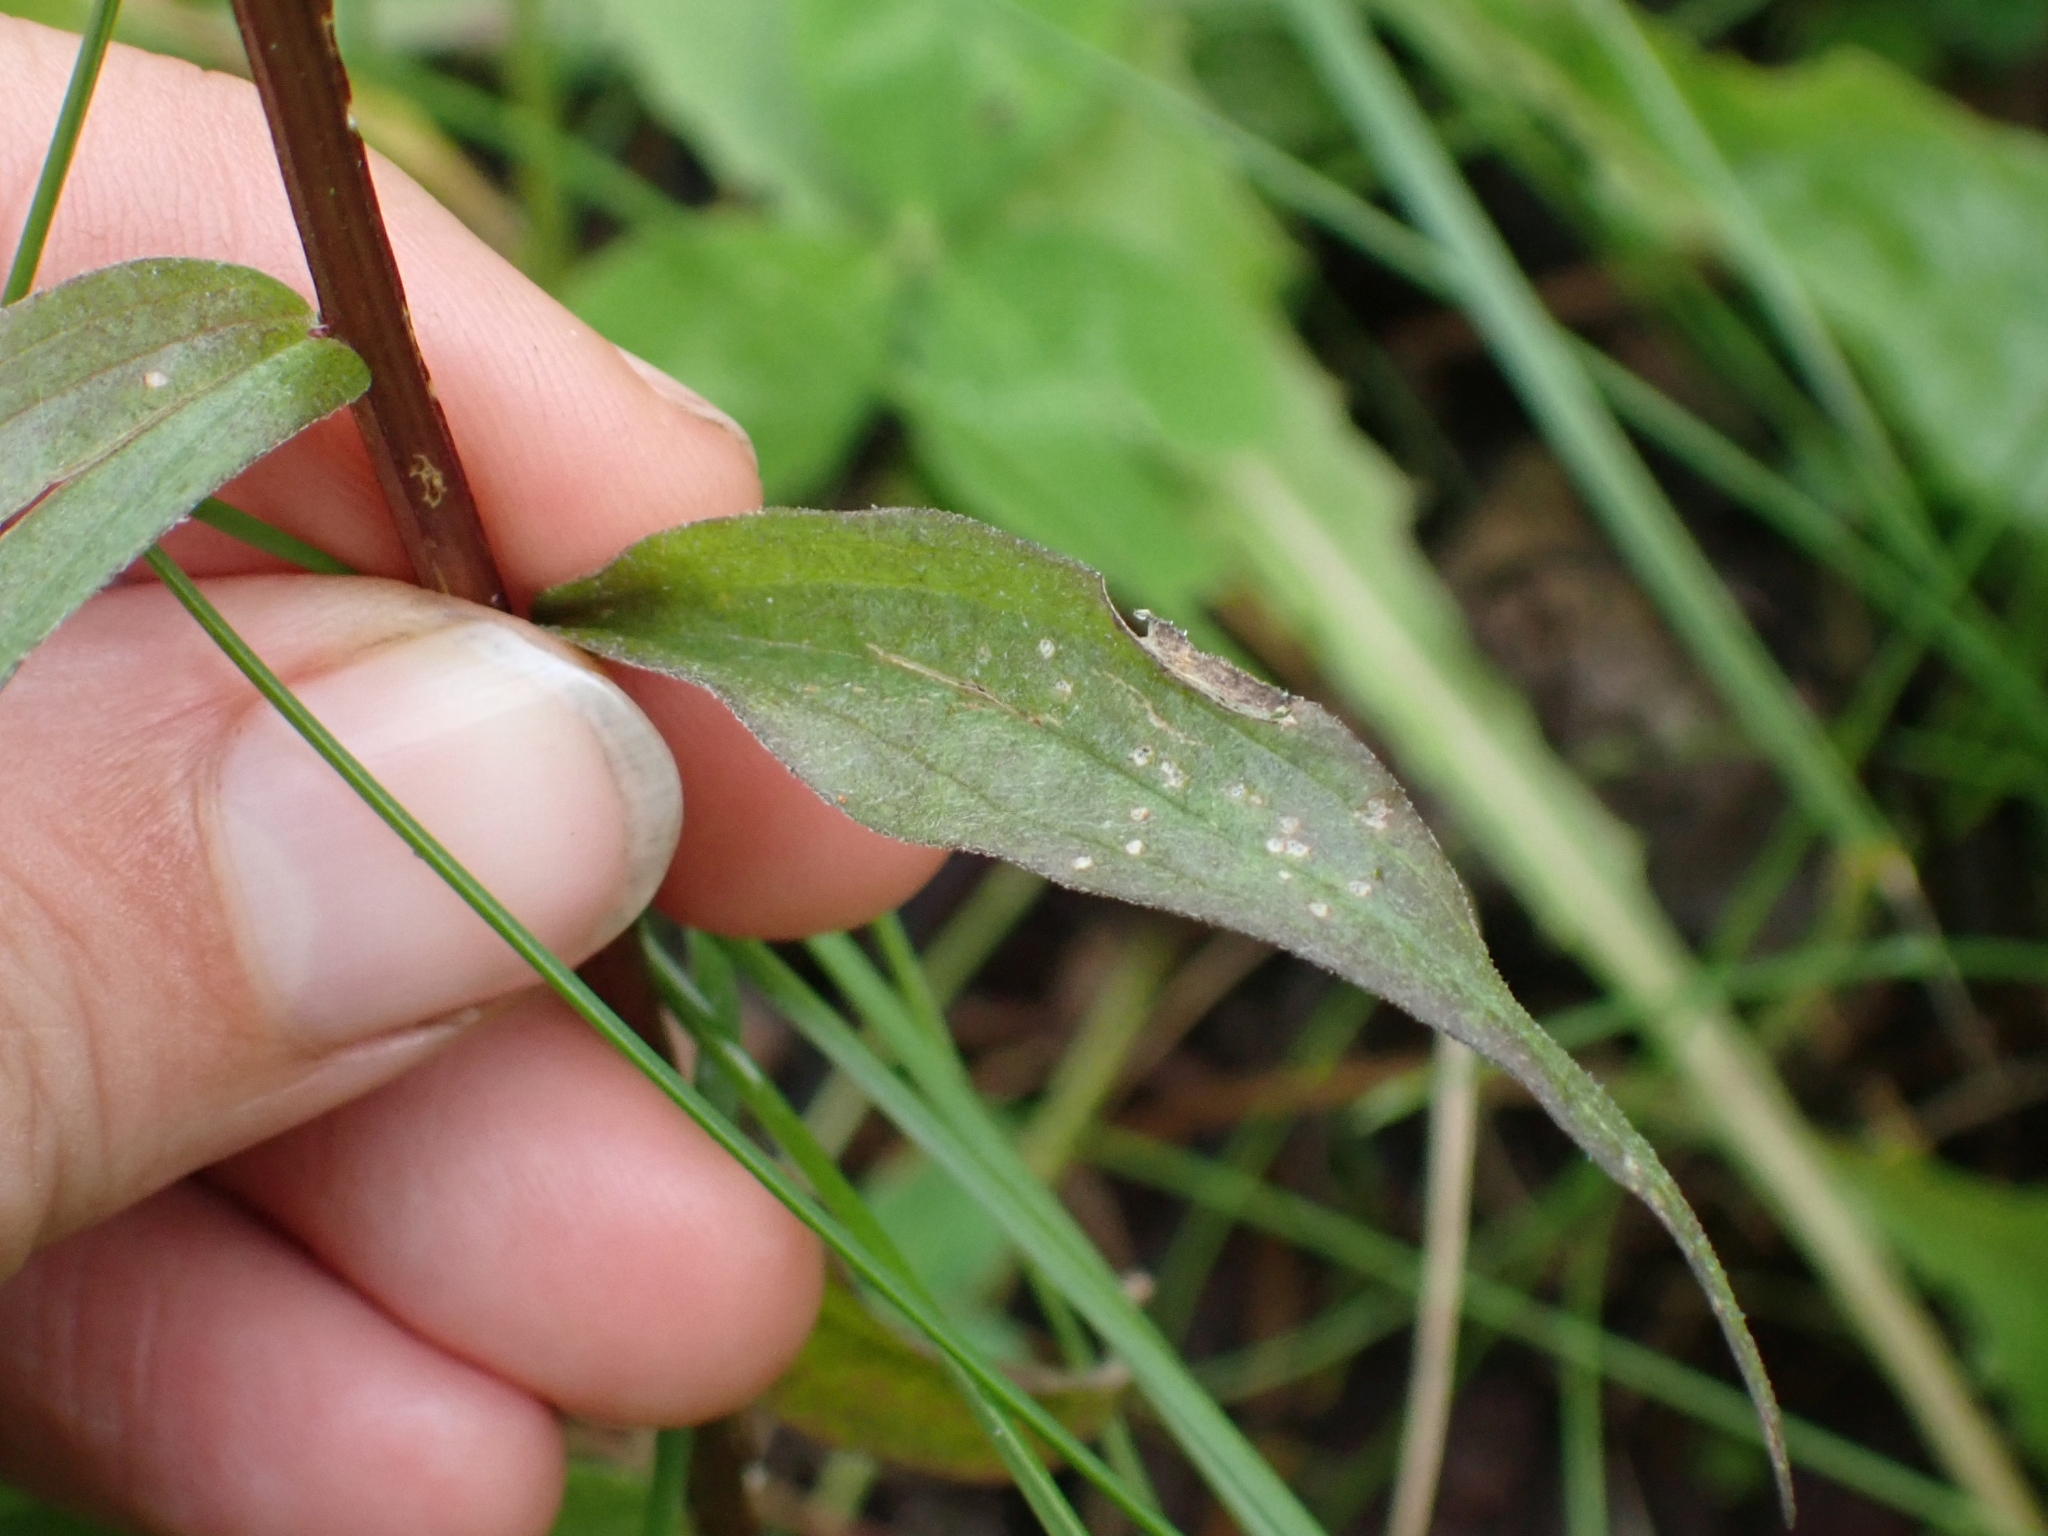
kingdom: Plantae
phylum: Tracheophyta
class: Magnoliopsida
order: Lamiales
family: Orobanchaceae
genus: Castilleja
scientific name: Castilleja miniata
